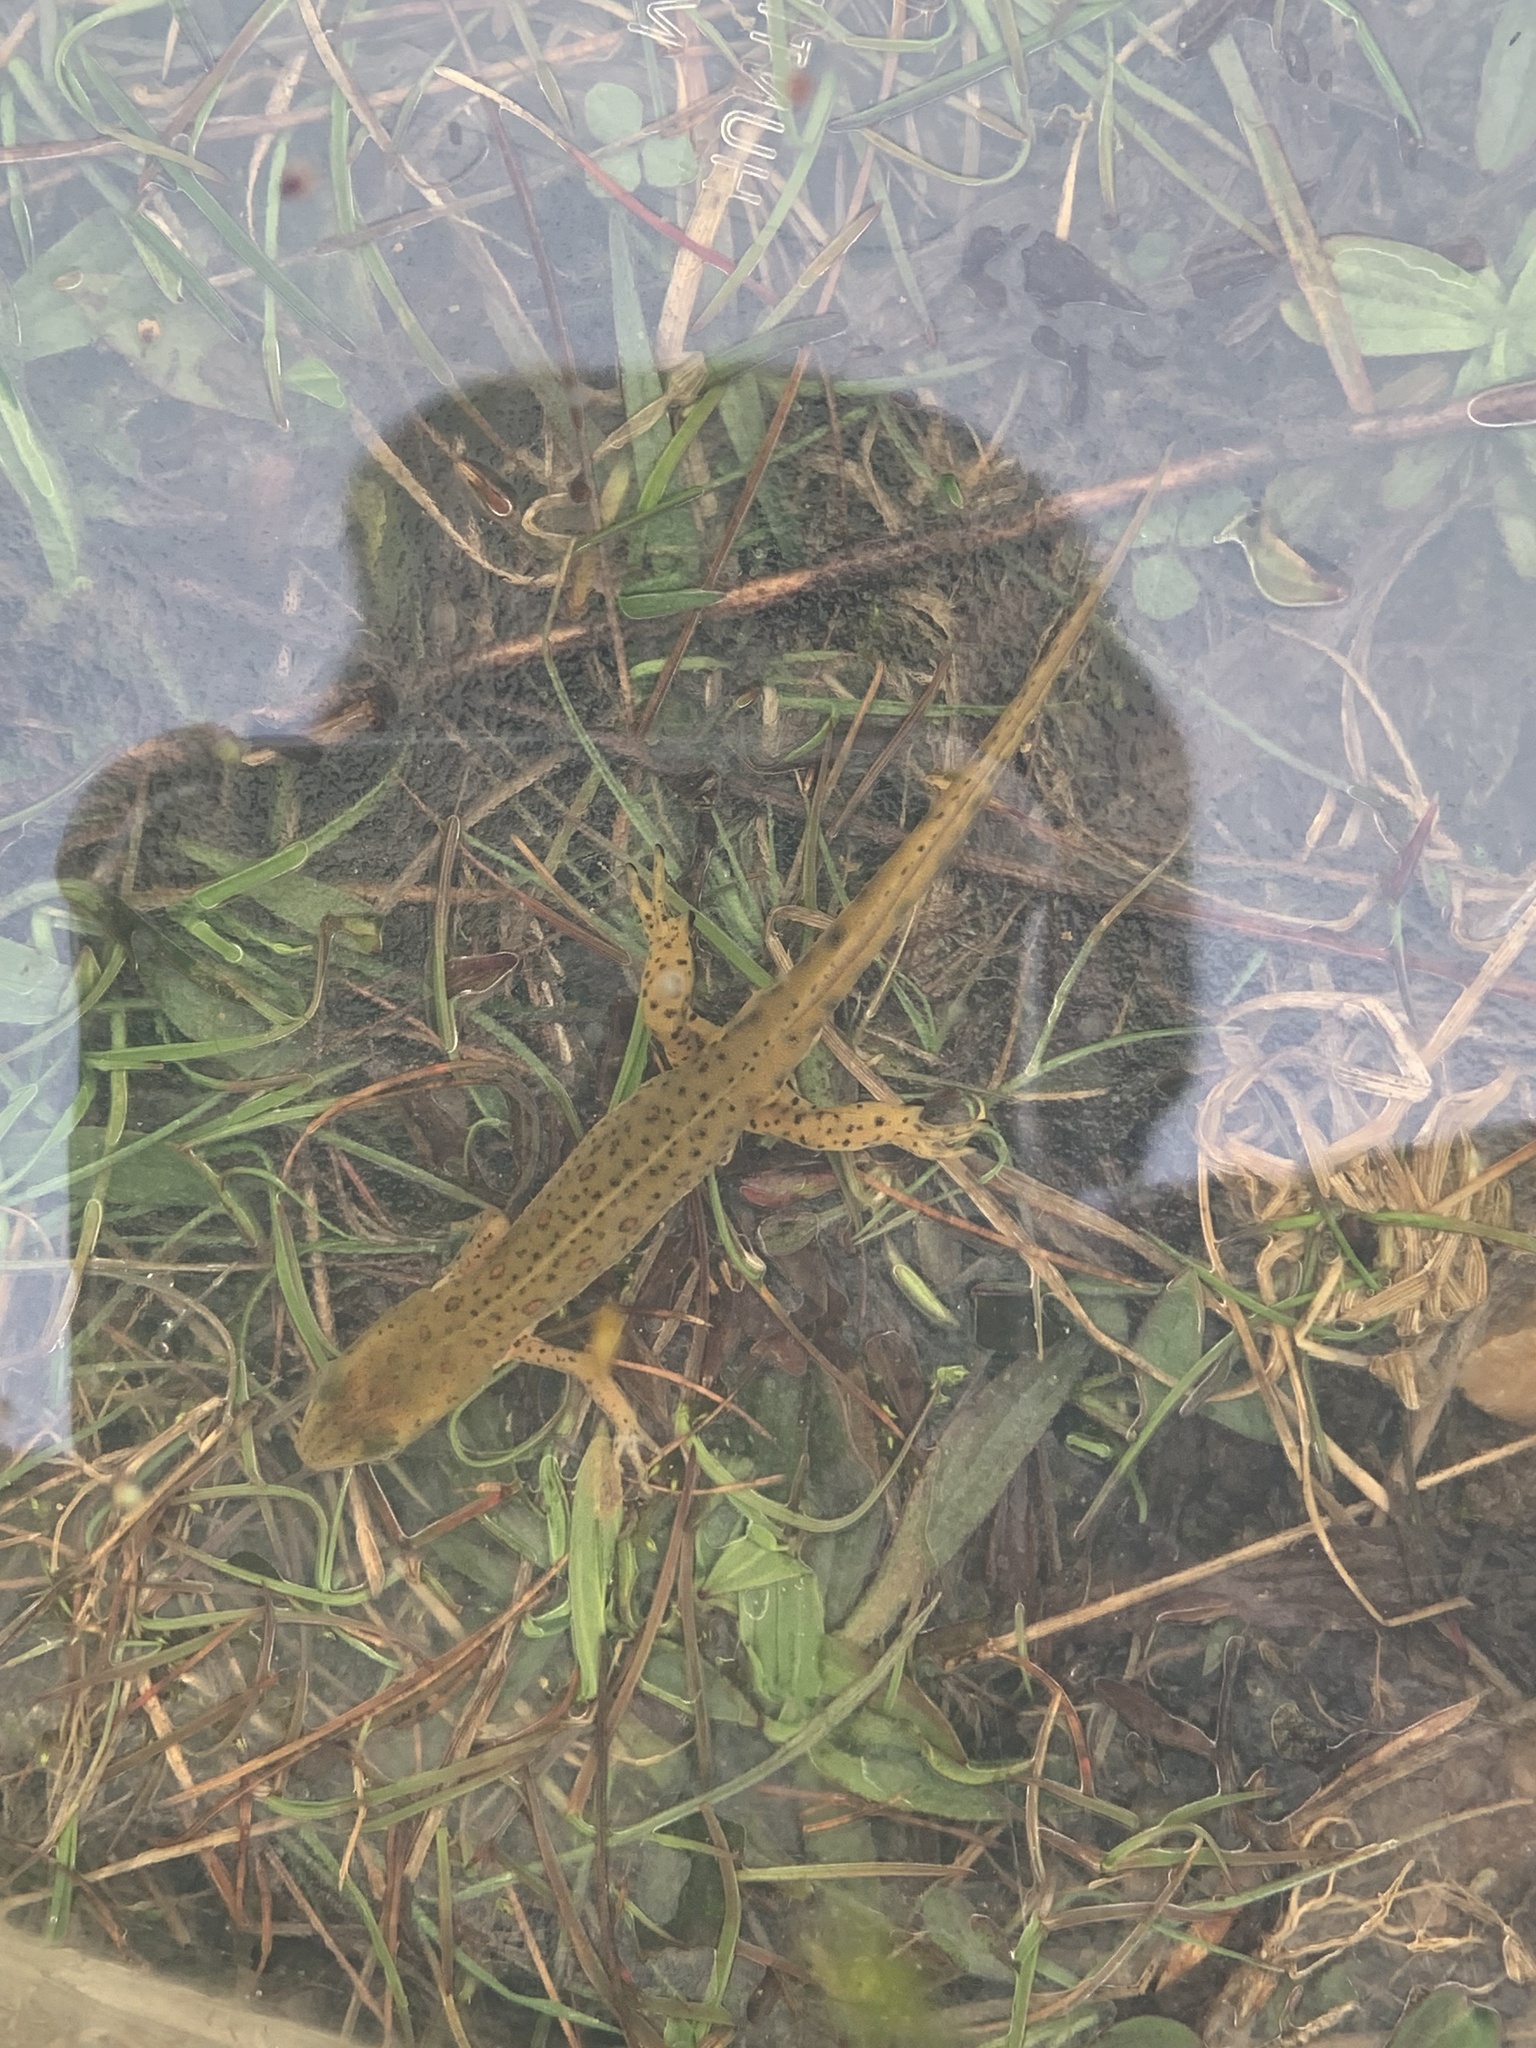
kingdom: Animalia
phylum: Chordata
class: Amphibia
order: Caudata
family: Salamandridae
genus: Notophthalmus
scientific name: Notophthalmus viridescens
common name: Eastern newt
